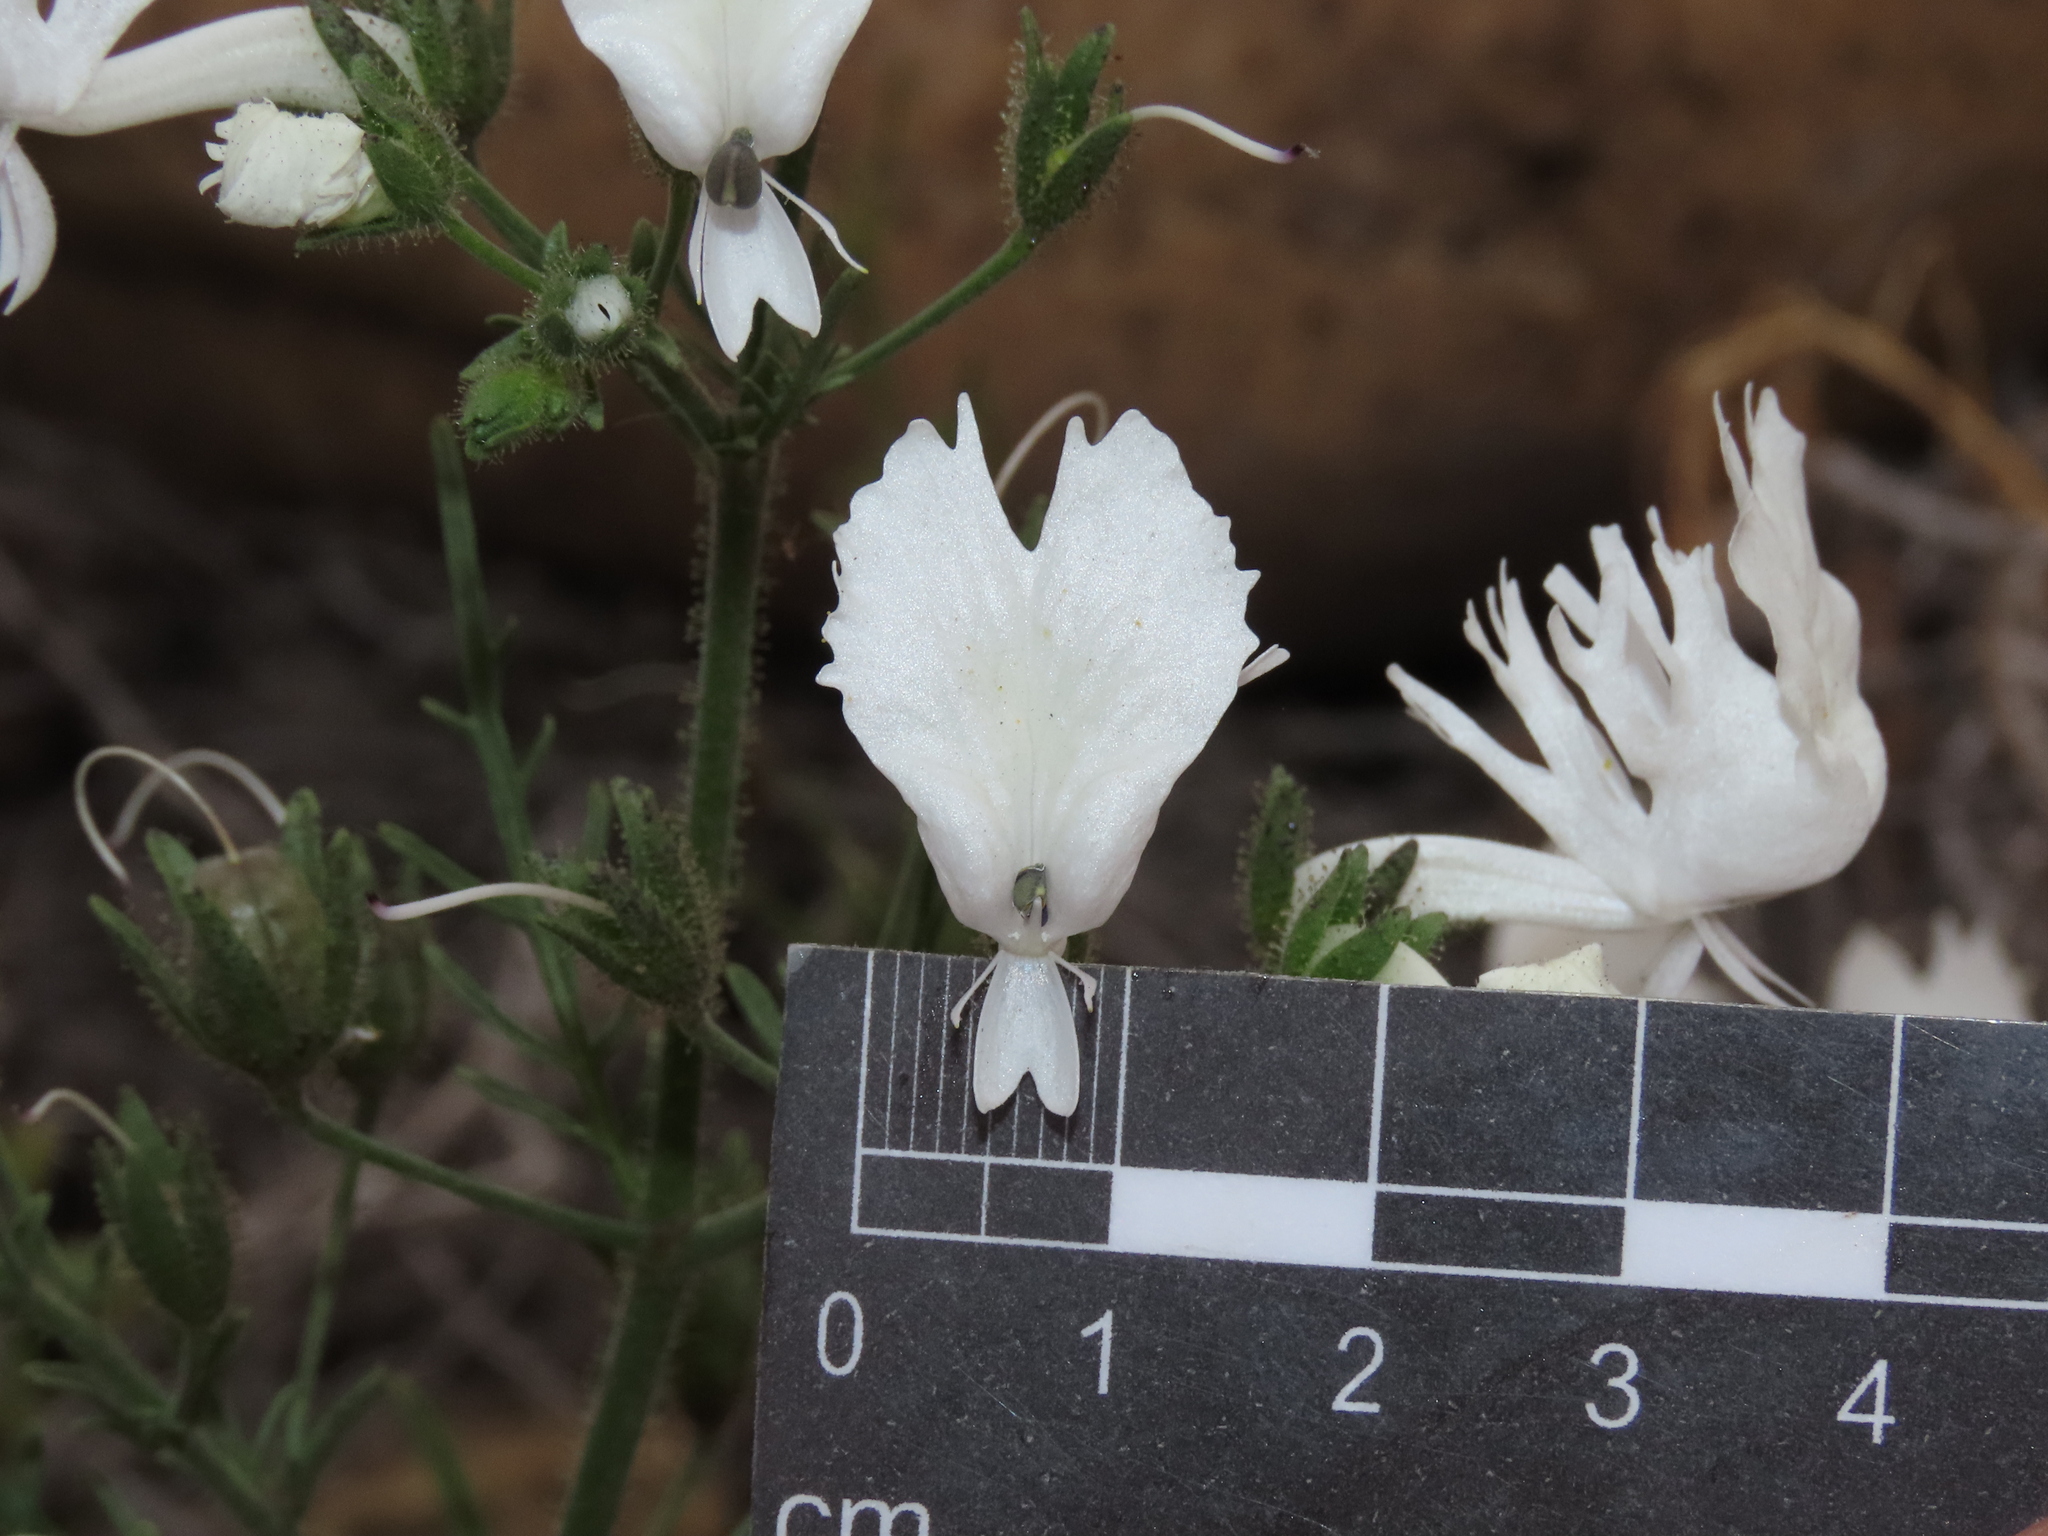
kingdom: Plantae
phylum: Tracheophyta
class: Magnoliopsida
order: Solanales
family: Solanaceae
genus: Schizanthus
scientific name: Schizanthus candidus
